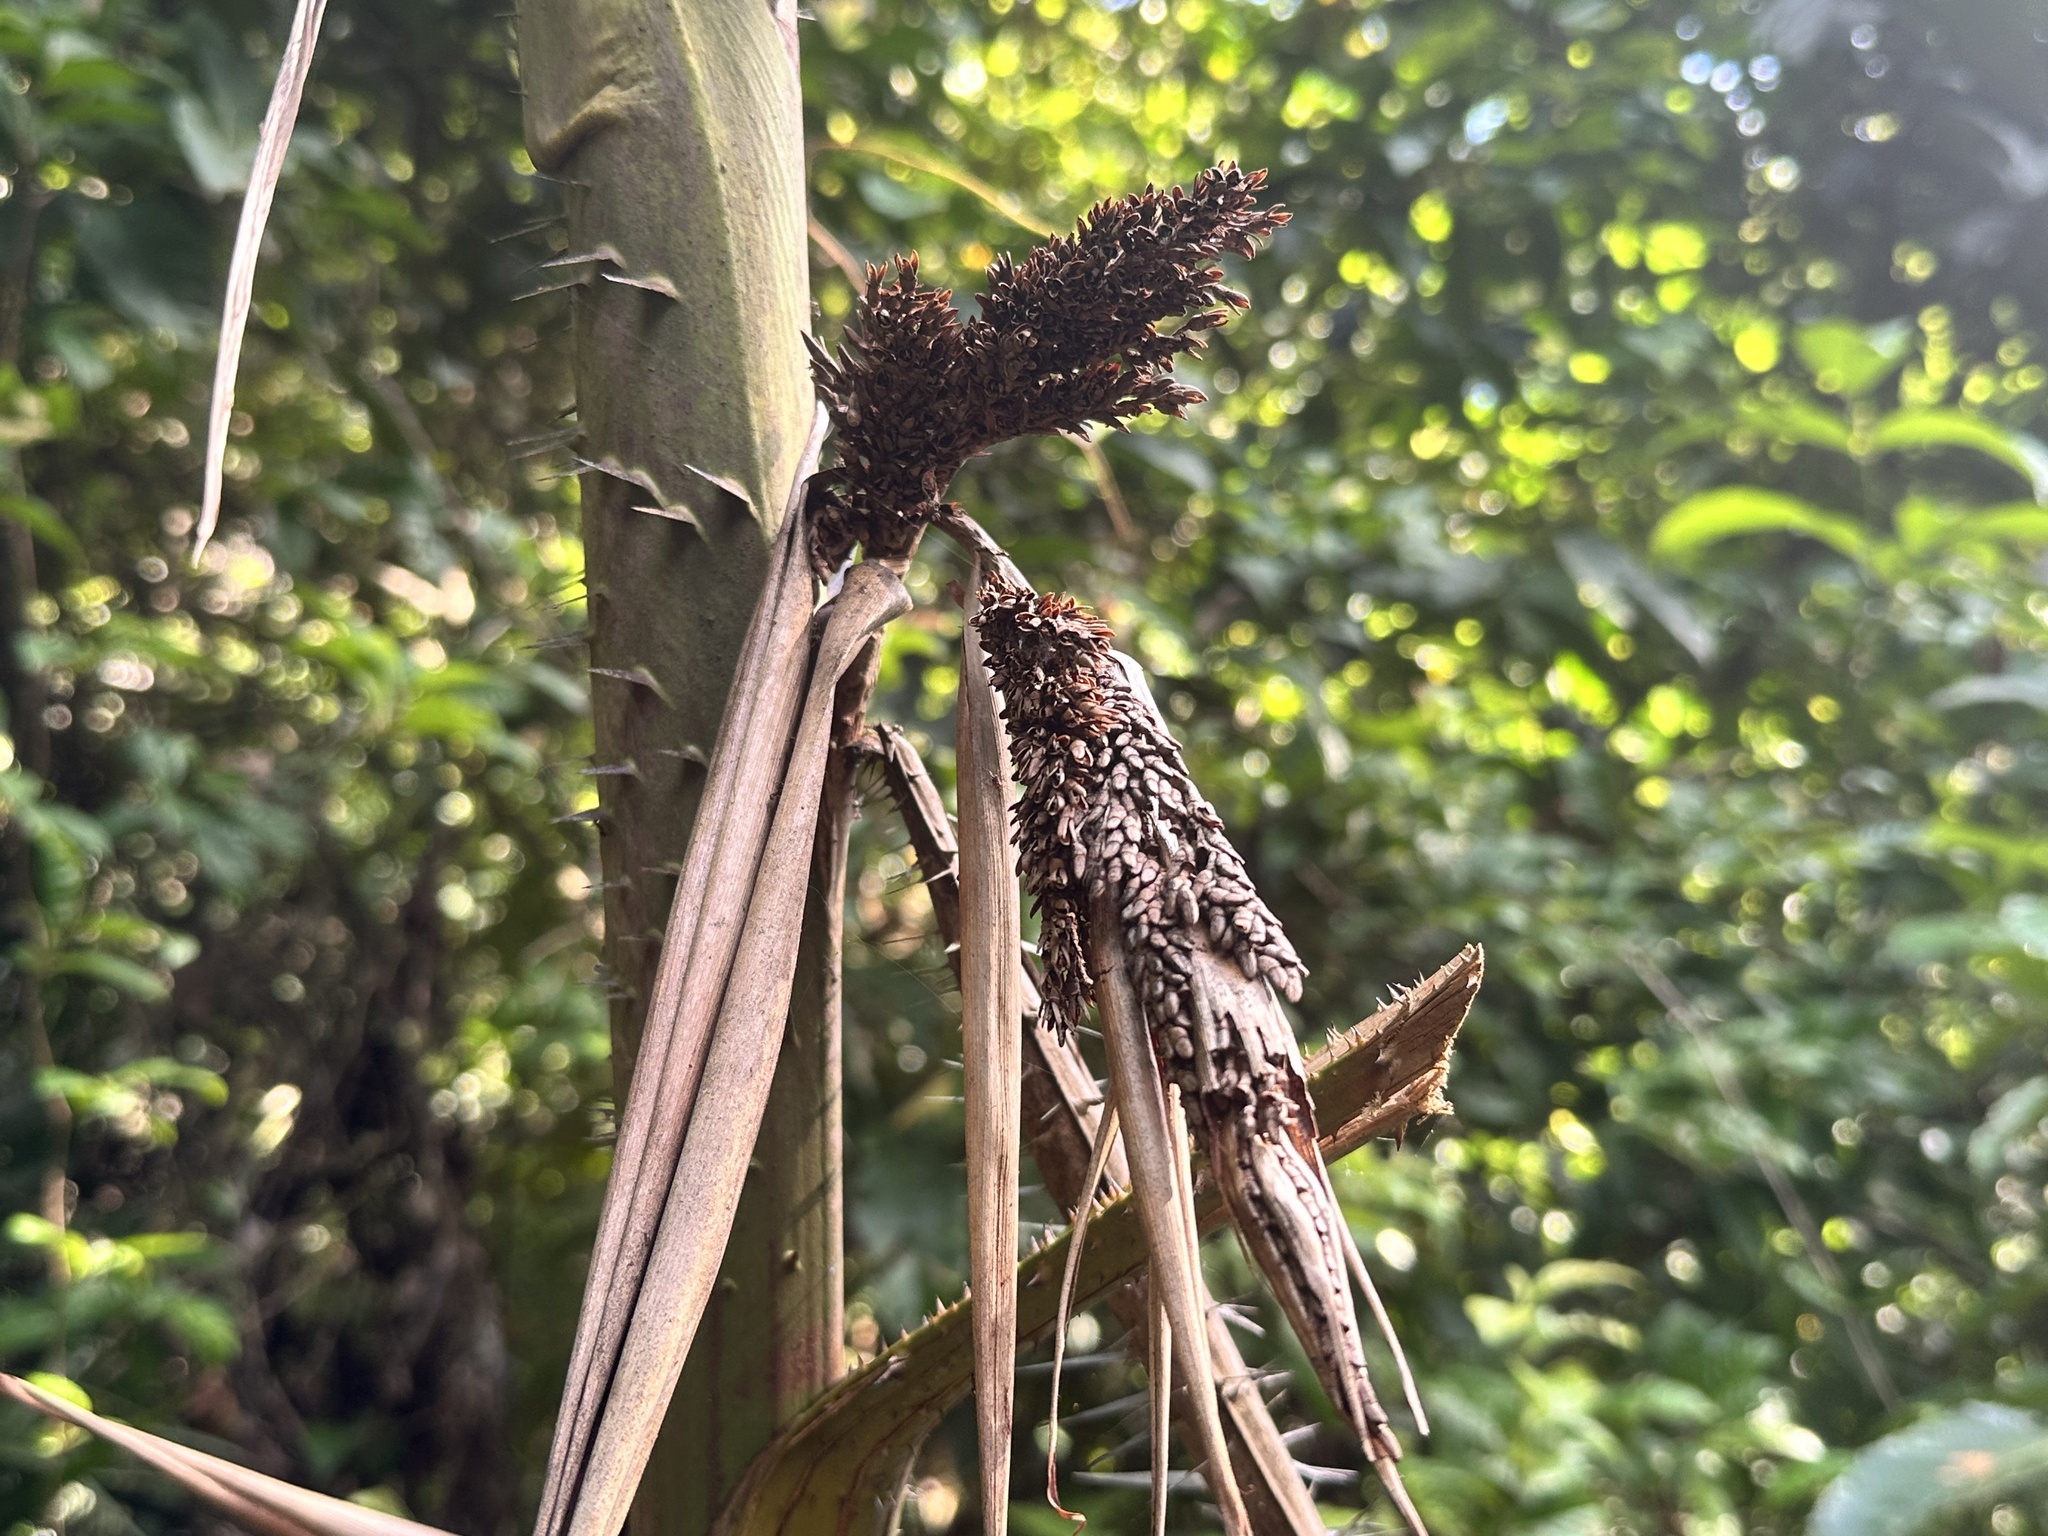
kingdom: Plantae
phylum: Tracheophyta
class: Liliopsida
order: Arecales
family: Arecaceae
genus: Calamus
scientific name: Calamus melanochaetes
